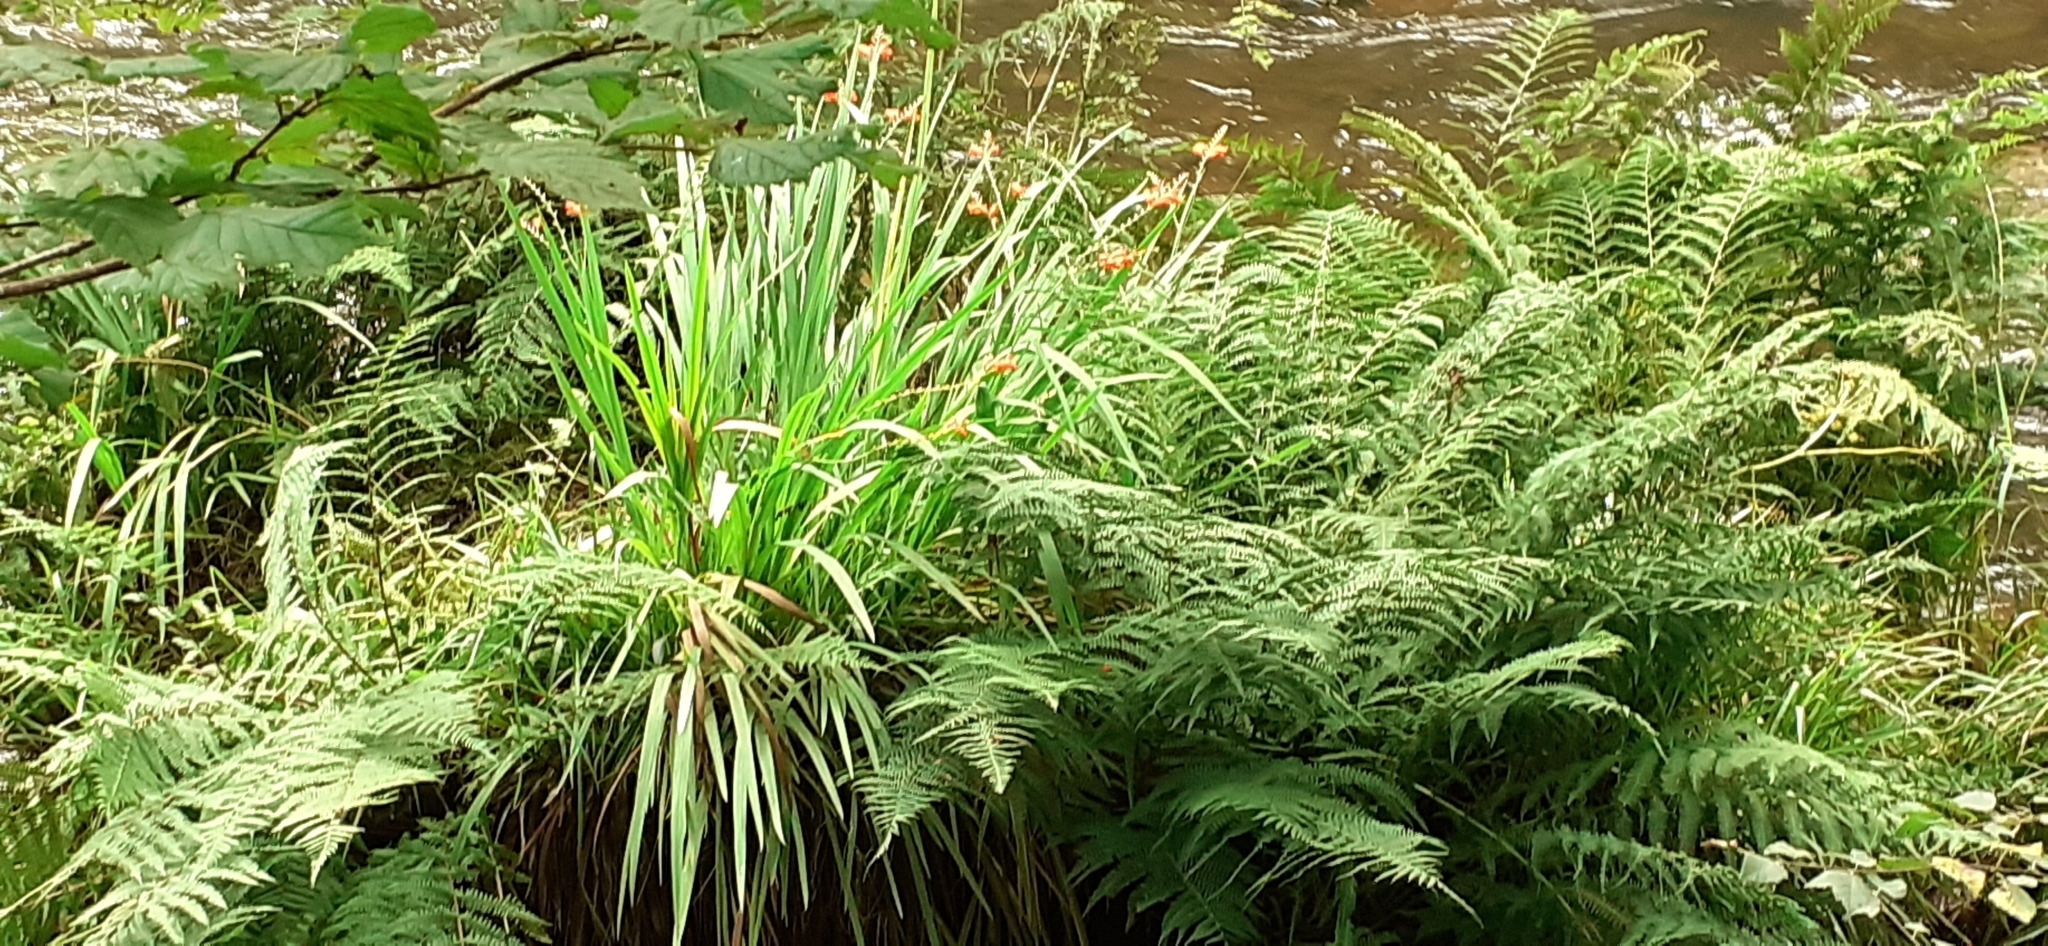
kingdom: Plantae
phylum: Tracheophyta
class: Liliopsida
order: Asparagales
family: Iridaceae
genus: Crocosmia
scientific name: Crocosmia crocosmiiflora
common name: Montbretia
